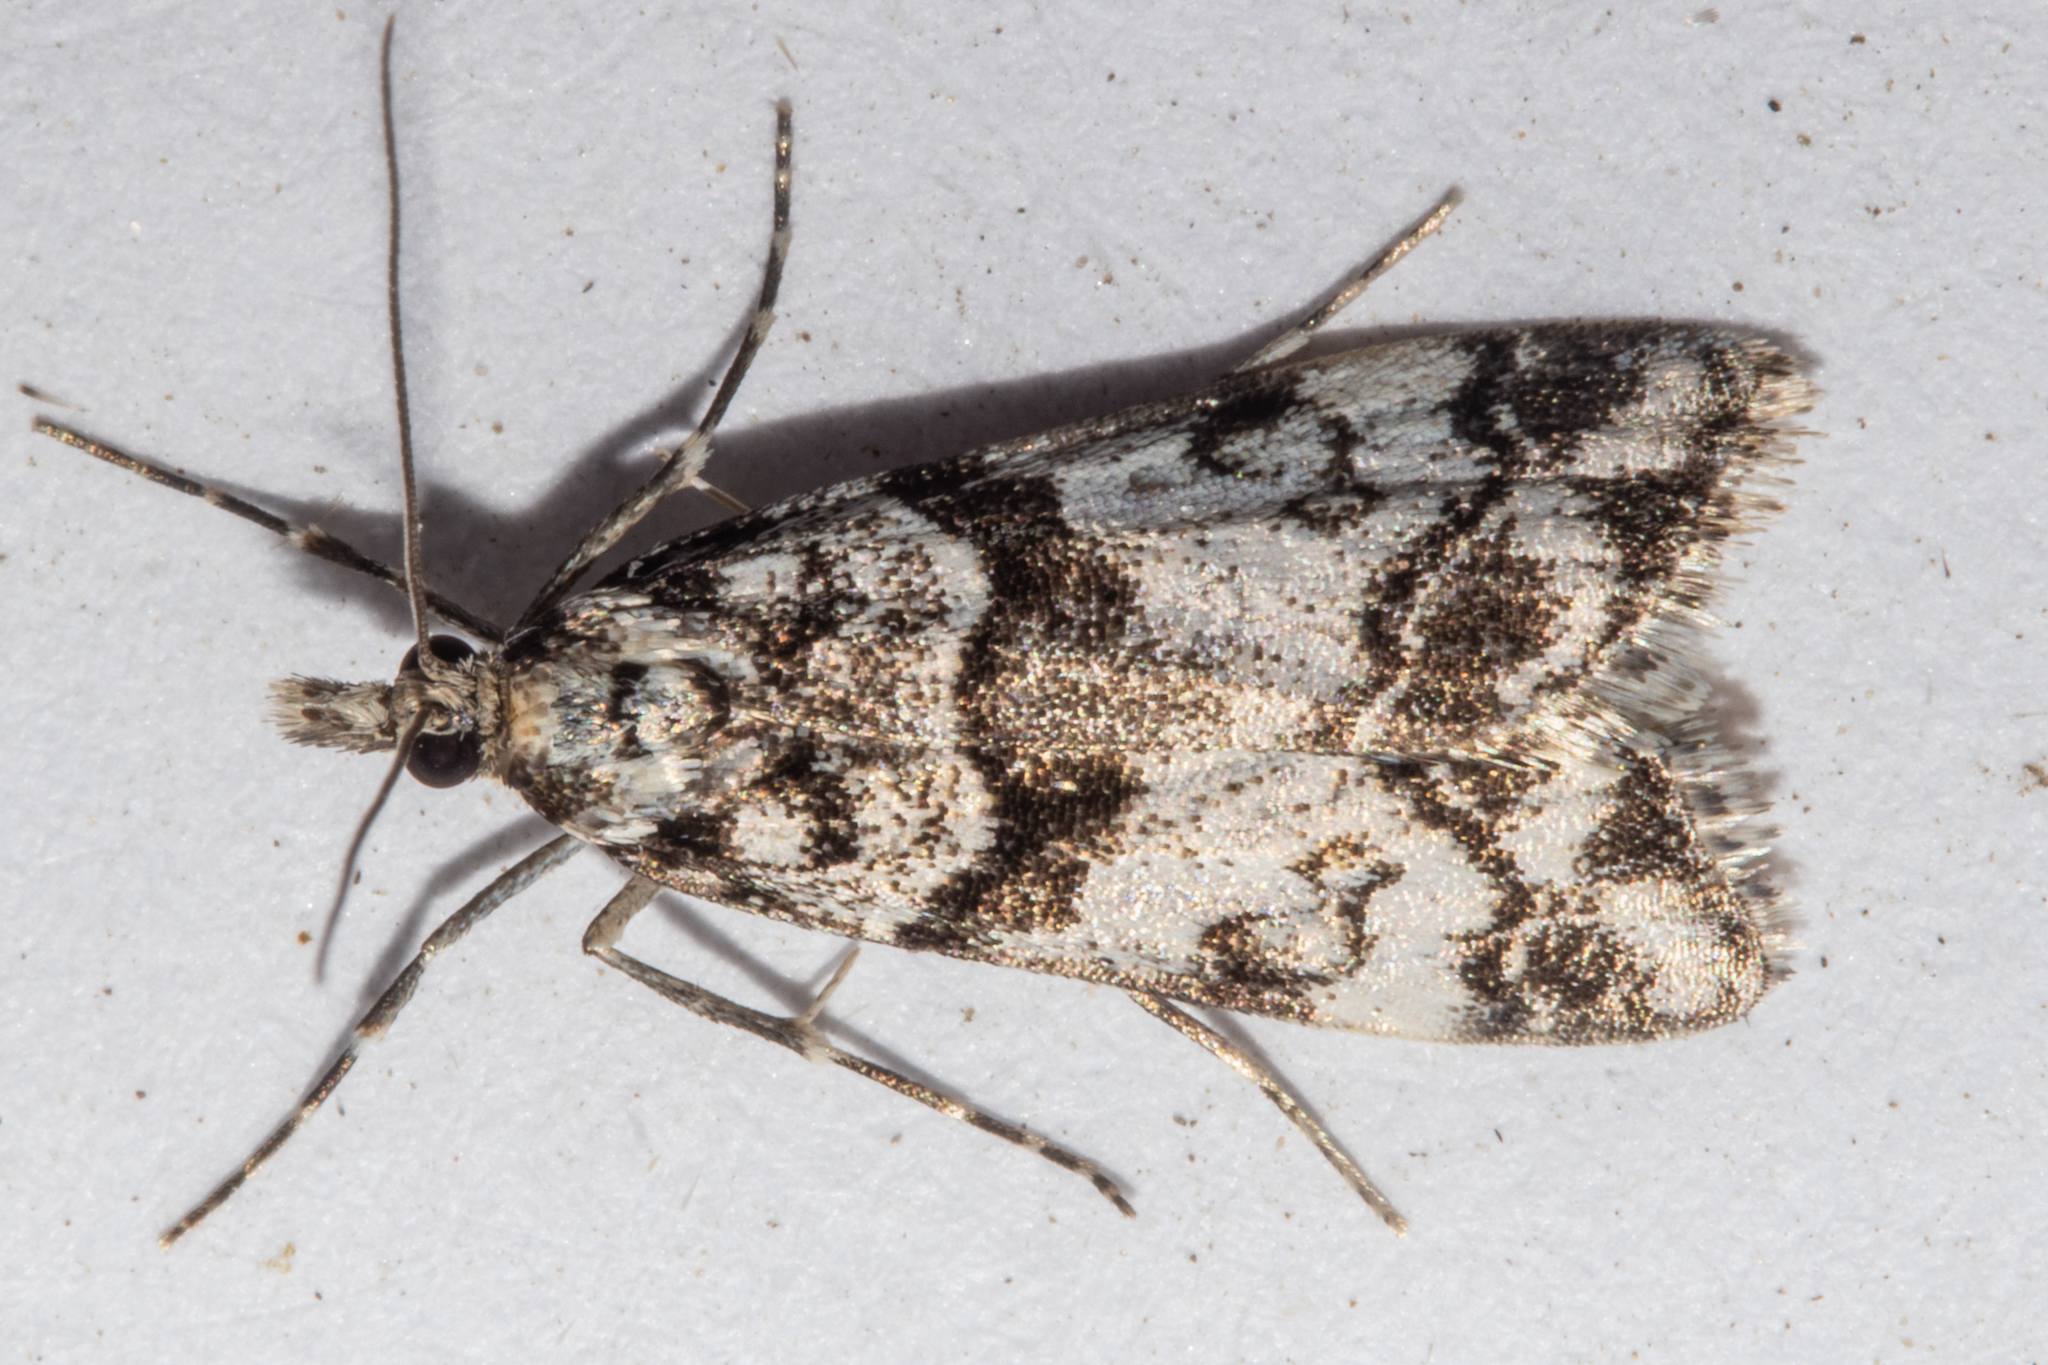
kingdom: Animalia
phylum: Arthropoda
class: Insecta
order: Lepidoptera
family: Crambidae
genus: Eudonia
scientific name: Eudonia torodes
